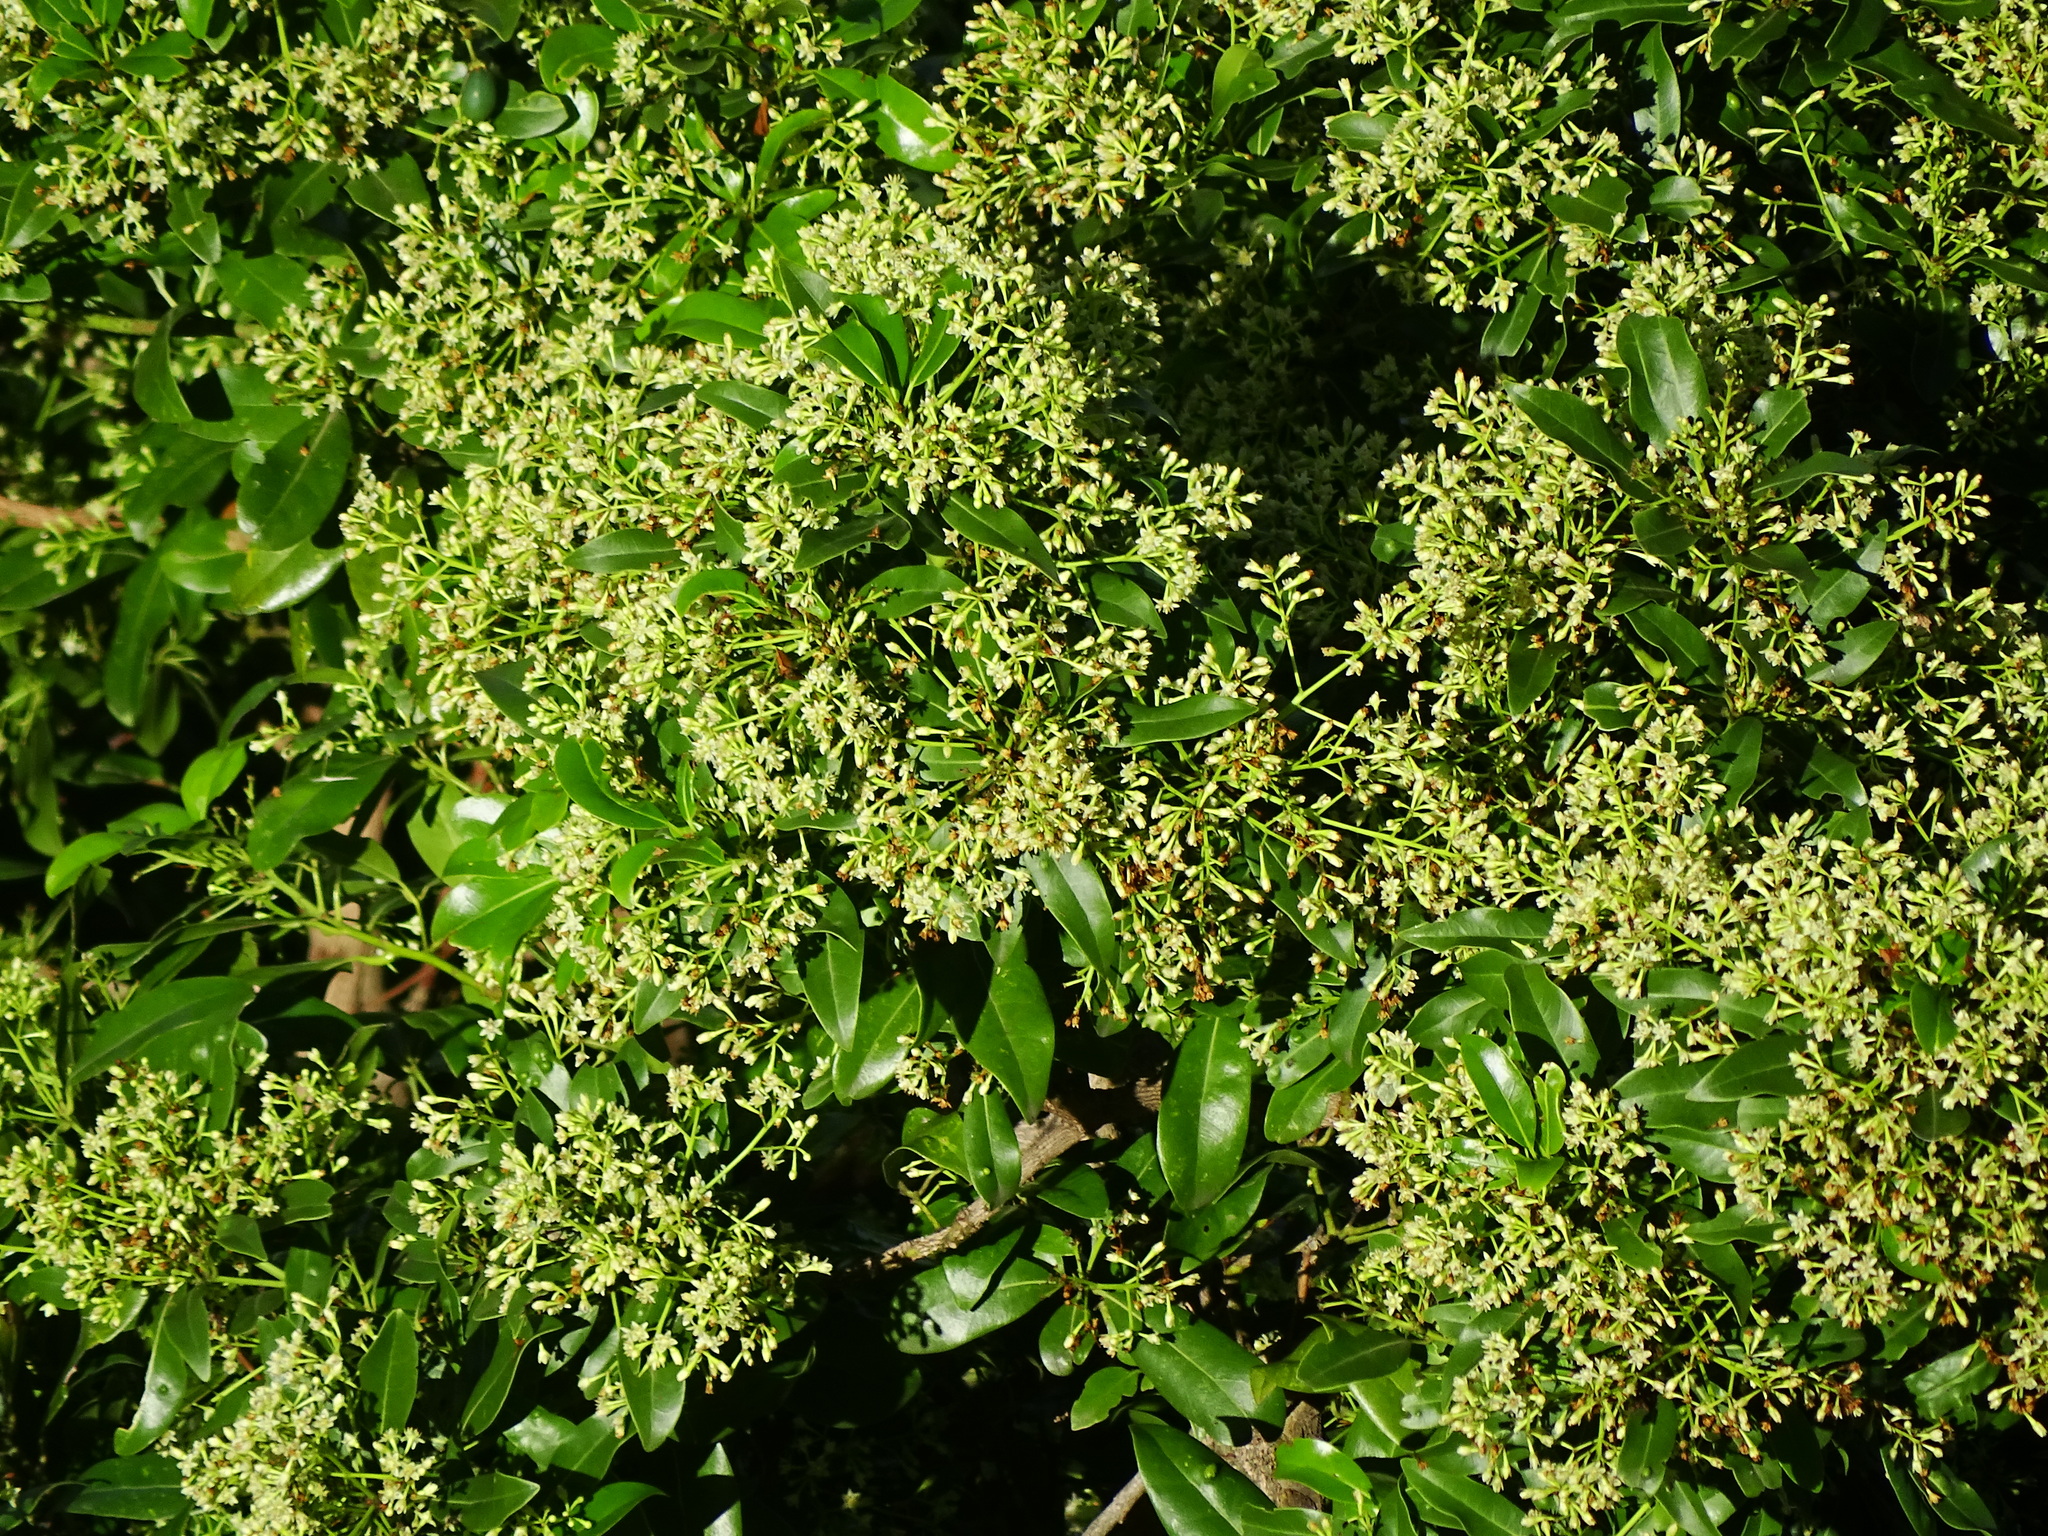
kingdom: Plantae
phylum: Tracheophyta
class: Magnoliopsida
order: Laurales
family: Lauraceae
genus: Apollonias
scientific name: Apollonias barbujana
